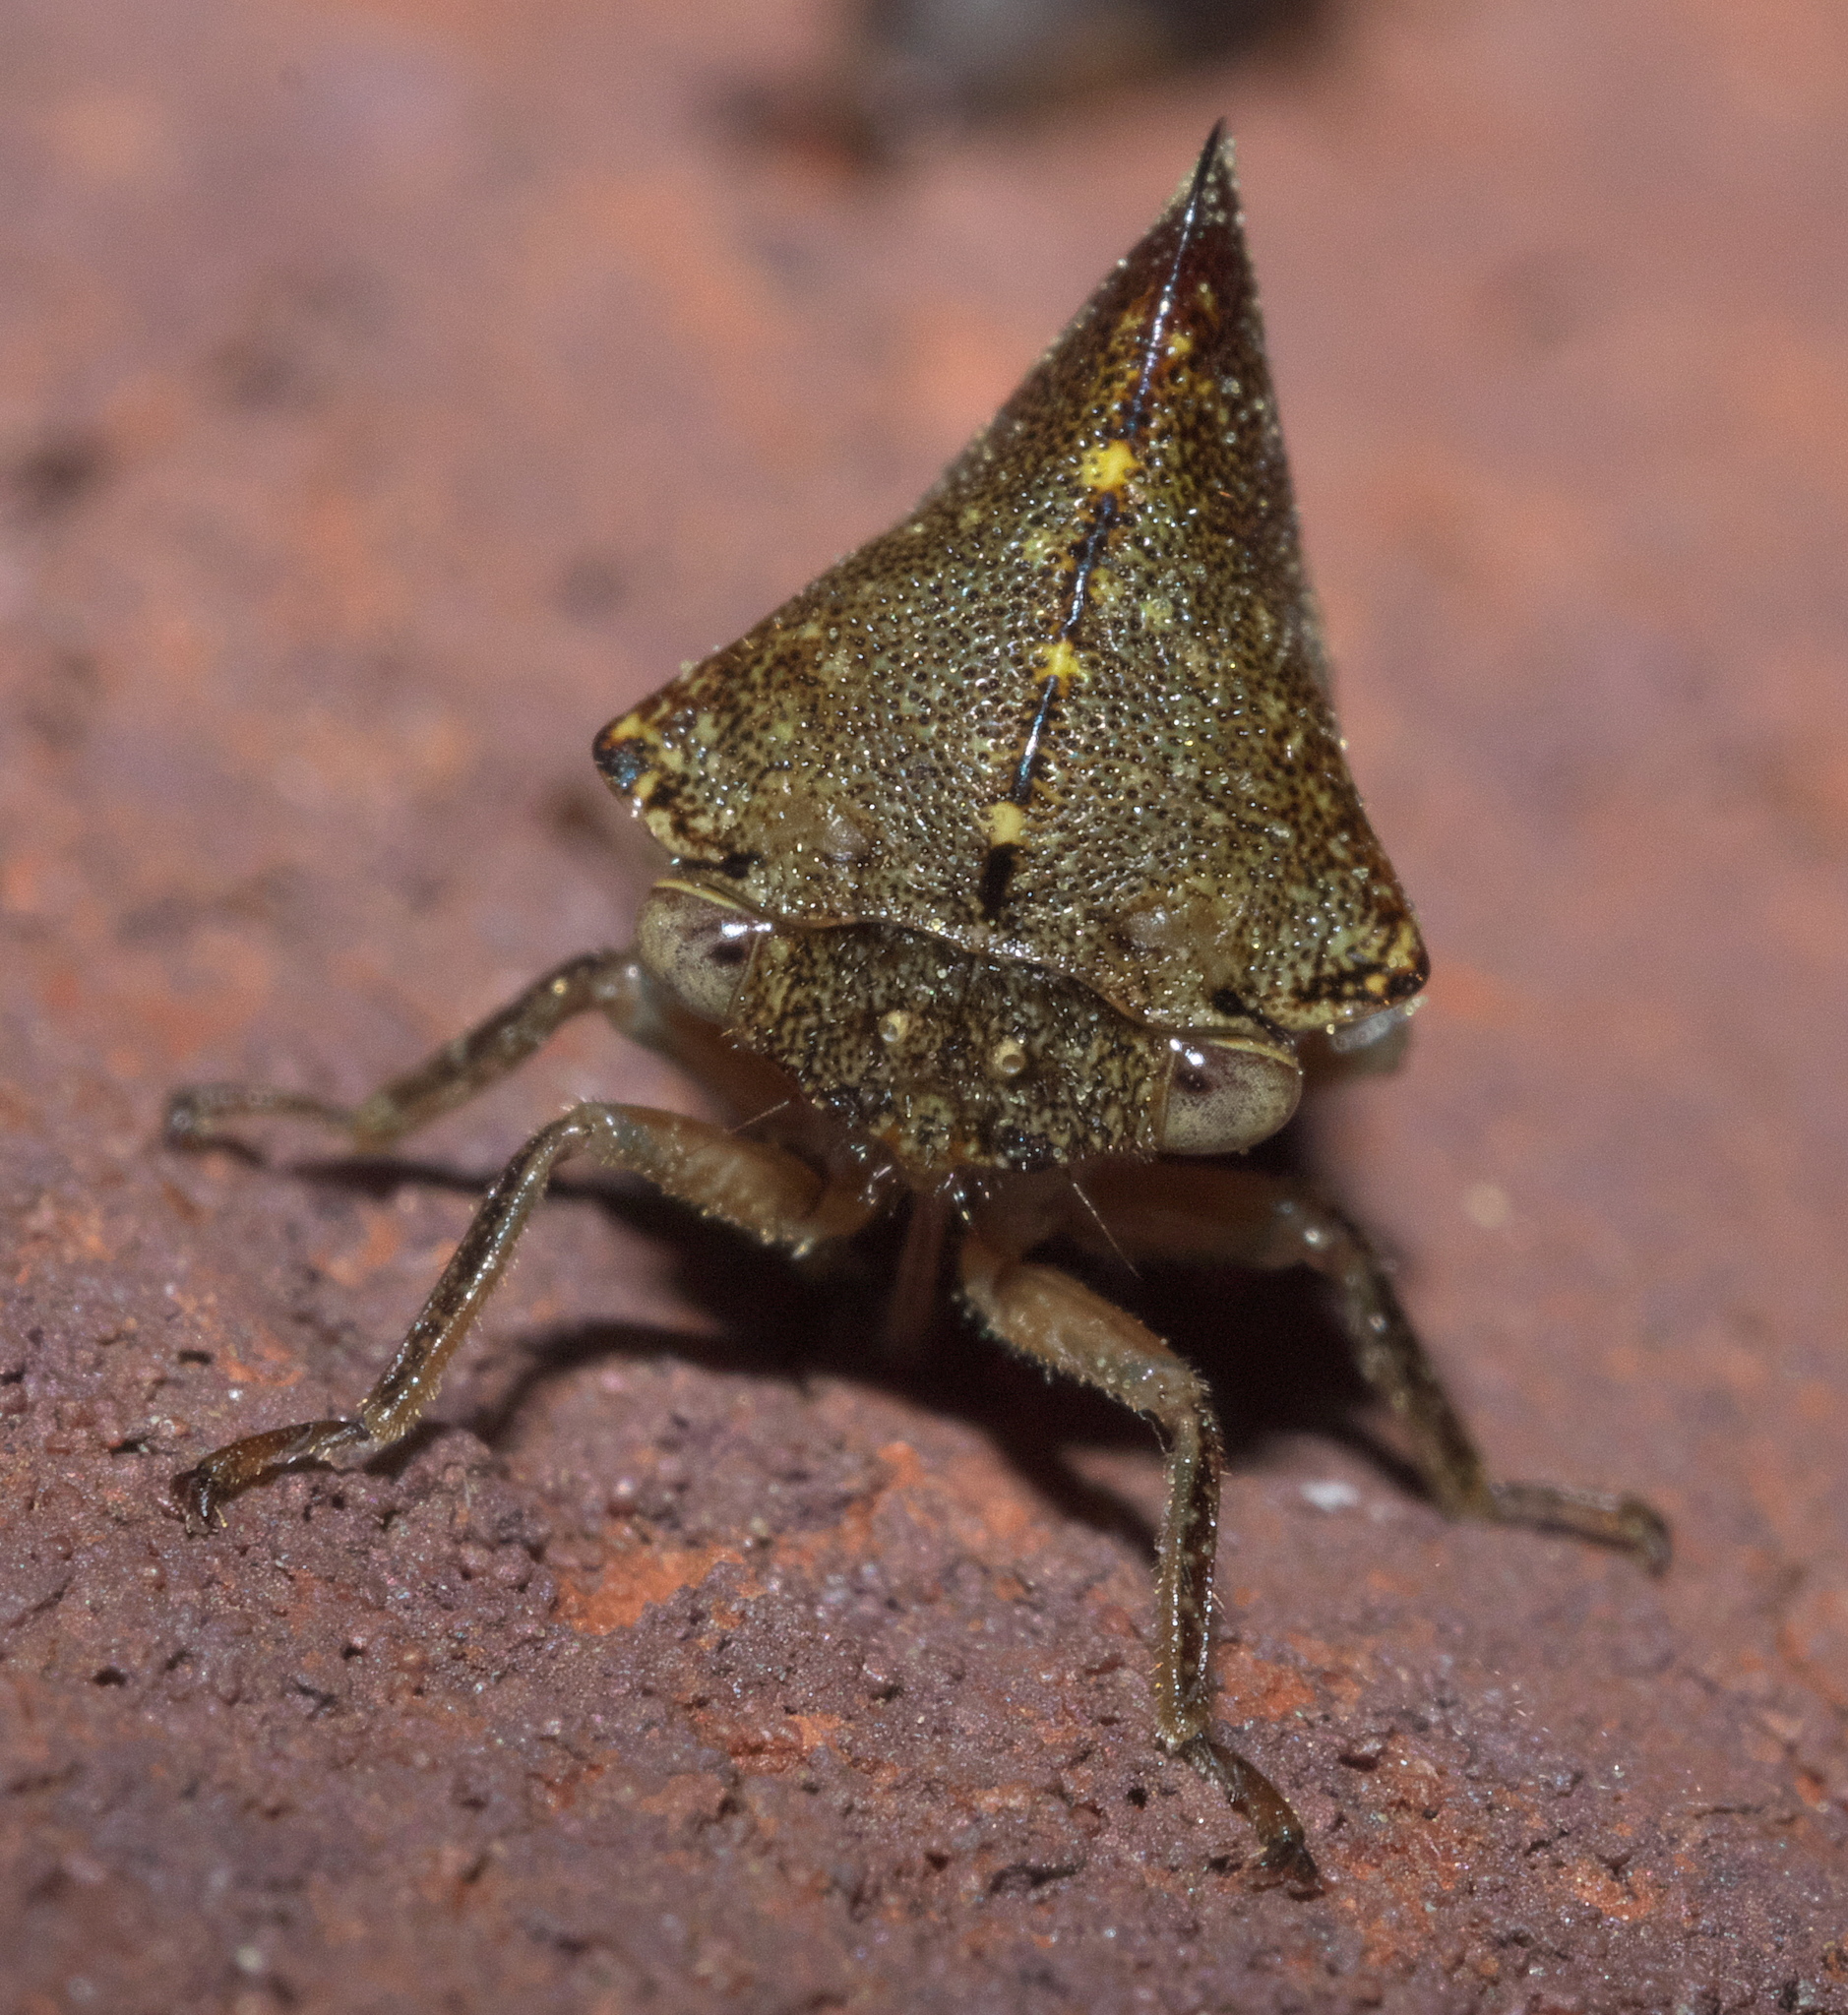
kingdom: Animalia
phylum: Arthropoda
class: Insecta
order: Hemiptera
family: Membracidae
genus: Telamona
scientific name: Telamona monticola
